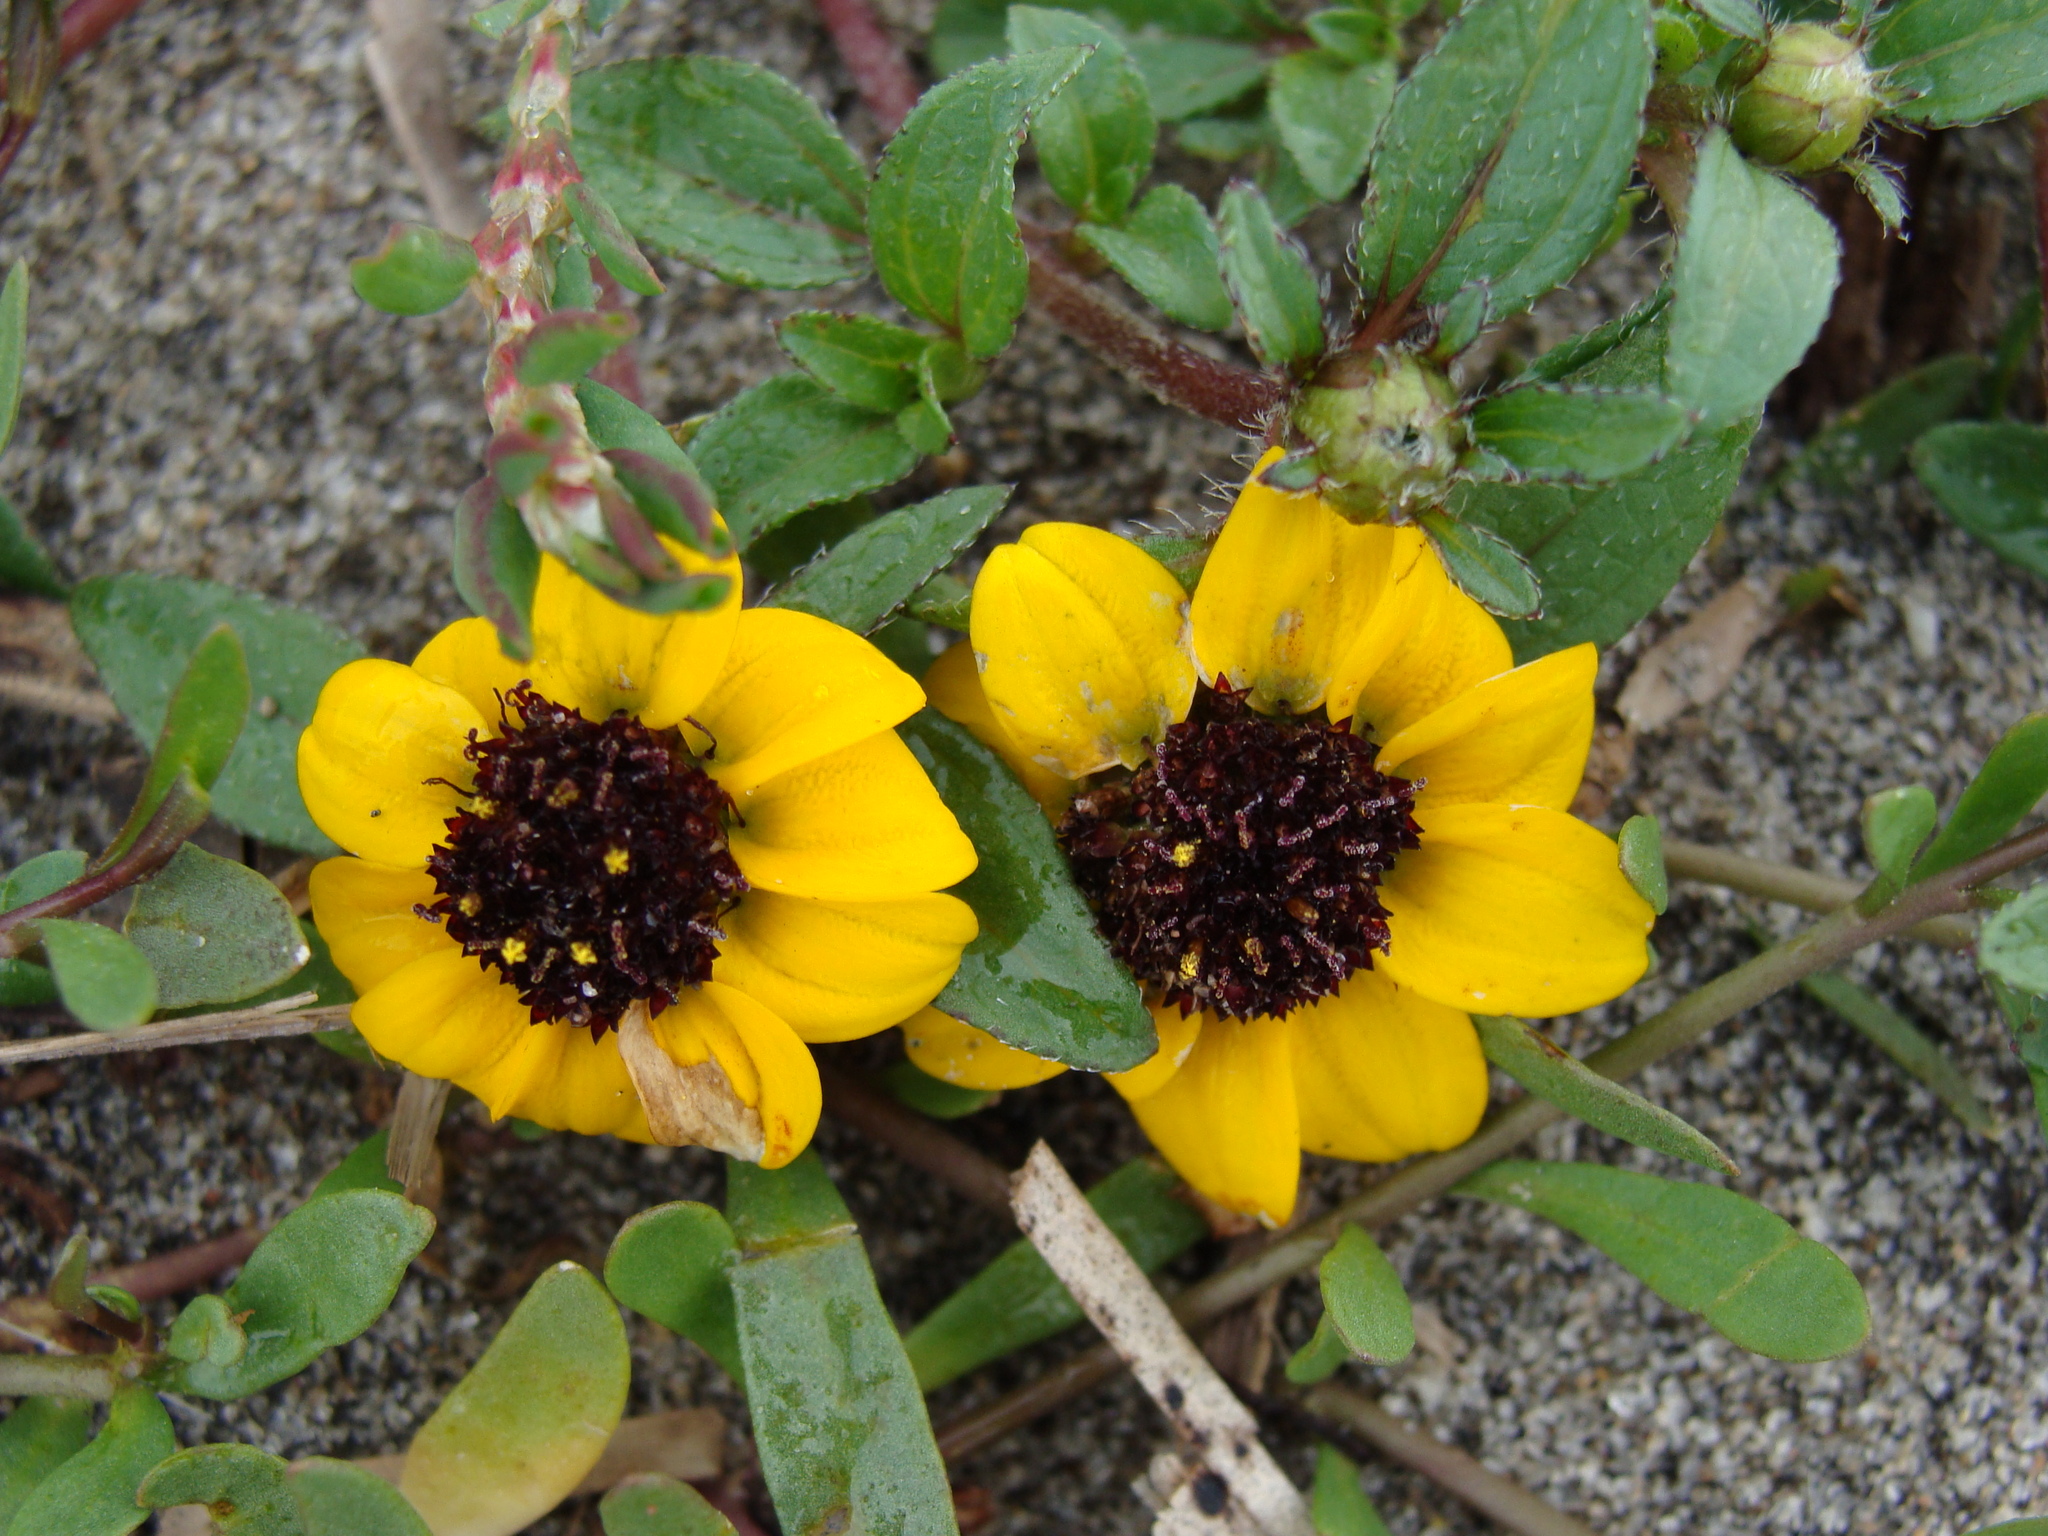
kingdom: Plantae
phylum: Tracheophyta
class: Magnoliopsida
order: Asterales
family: Asteraceae
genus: Sanvitalia
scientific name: Sanvitalia procumbens
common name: Mexican creeping zinnia
